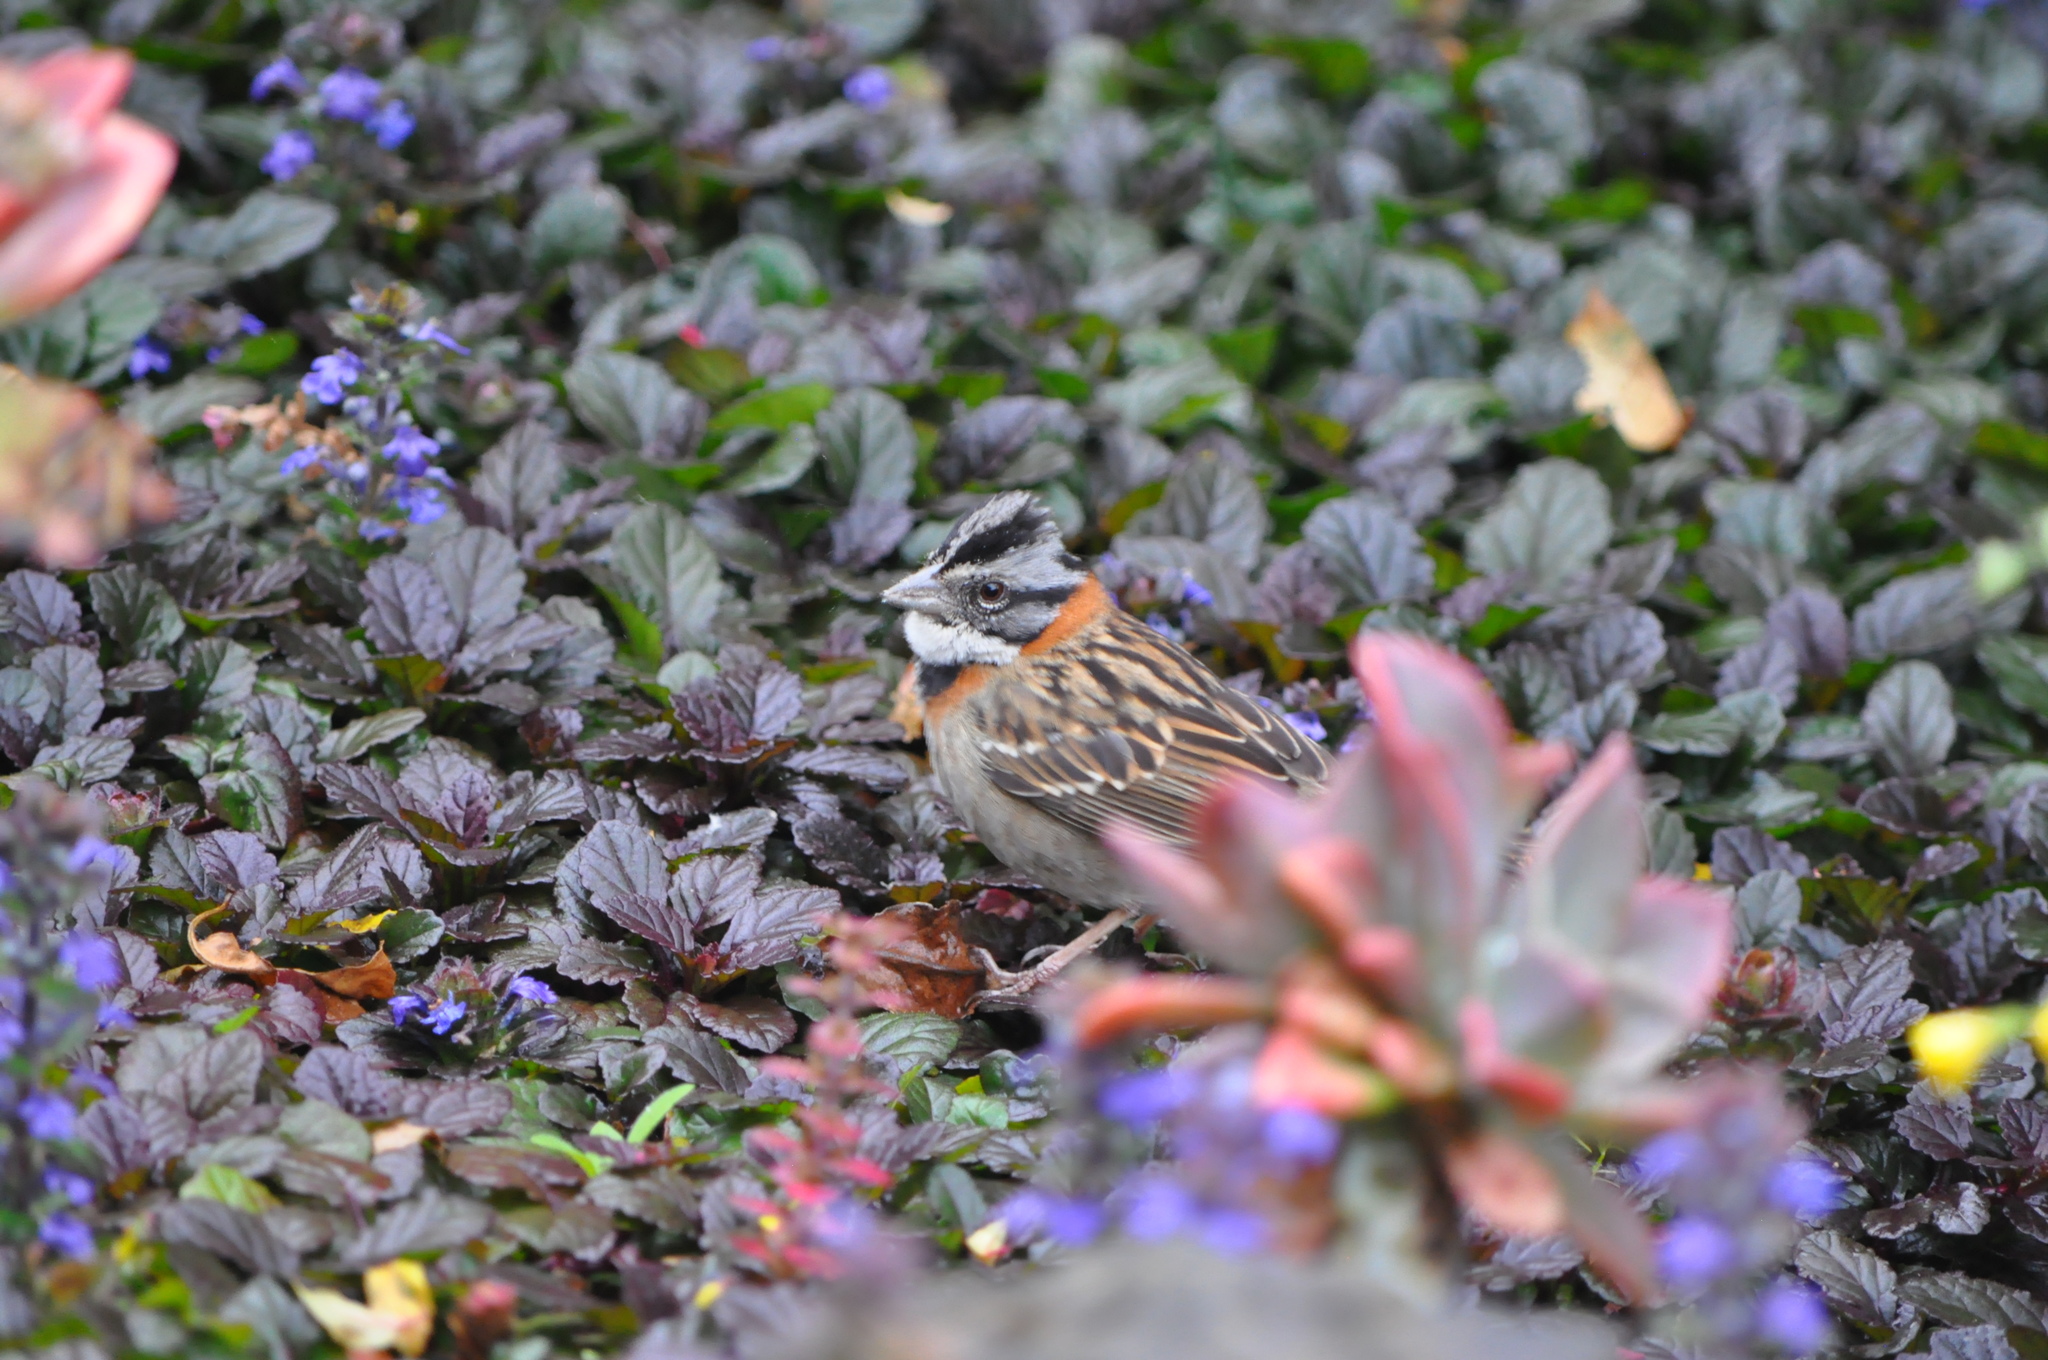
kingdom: Animalia
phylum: Chordata
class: Aves
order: Passeriformes
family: Passerellidae
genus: Zonotrichia
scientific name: Zonotrichia capensis
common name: Rufous-collared sparrow
